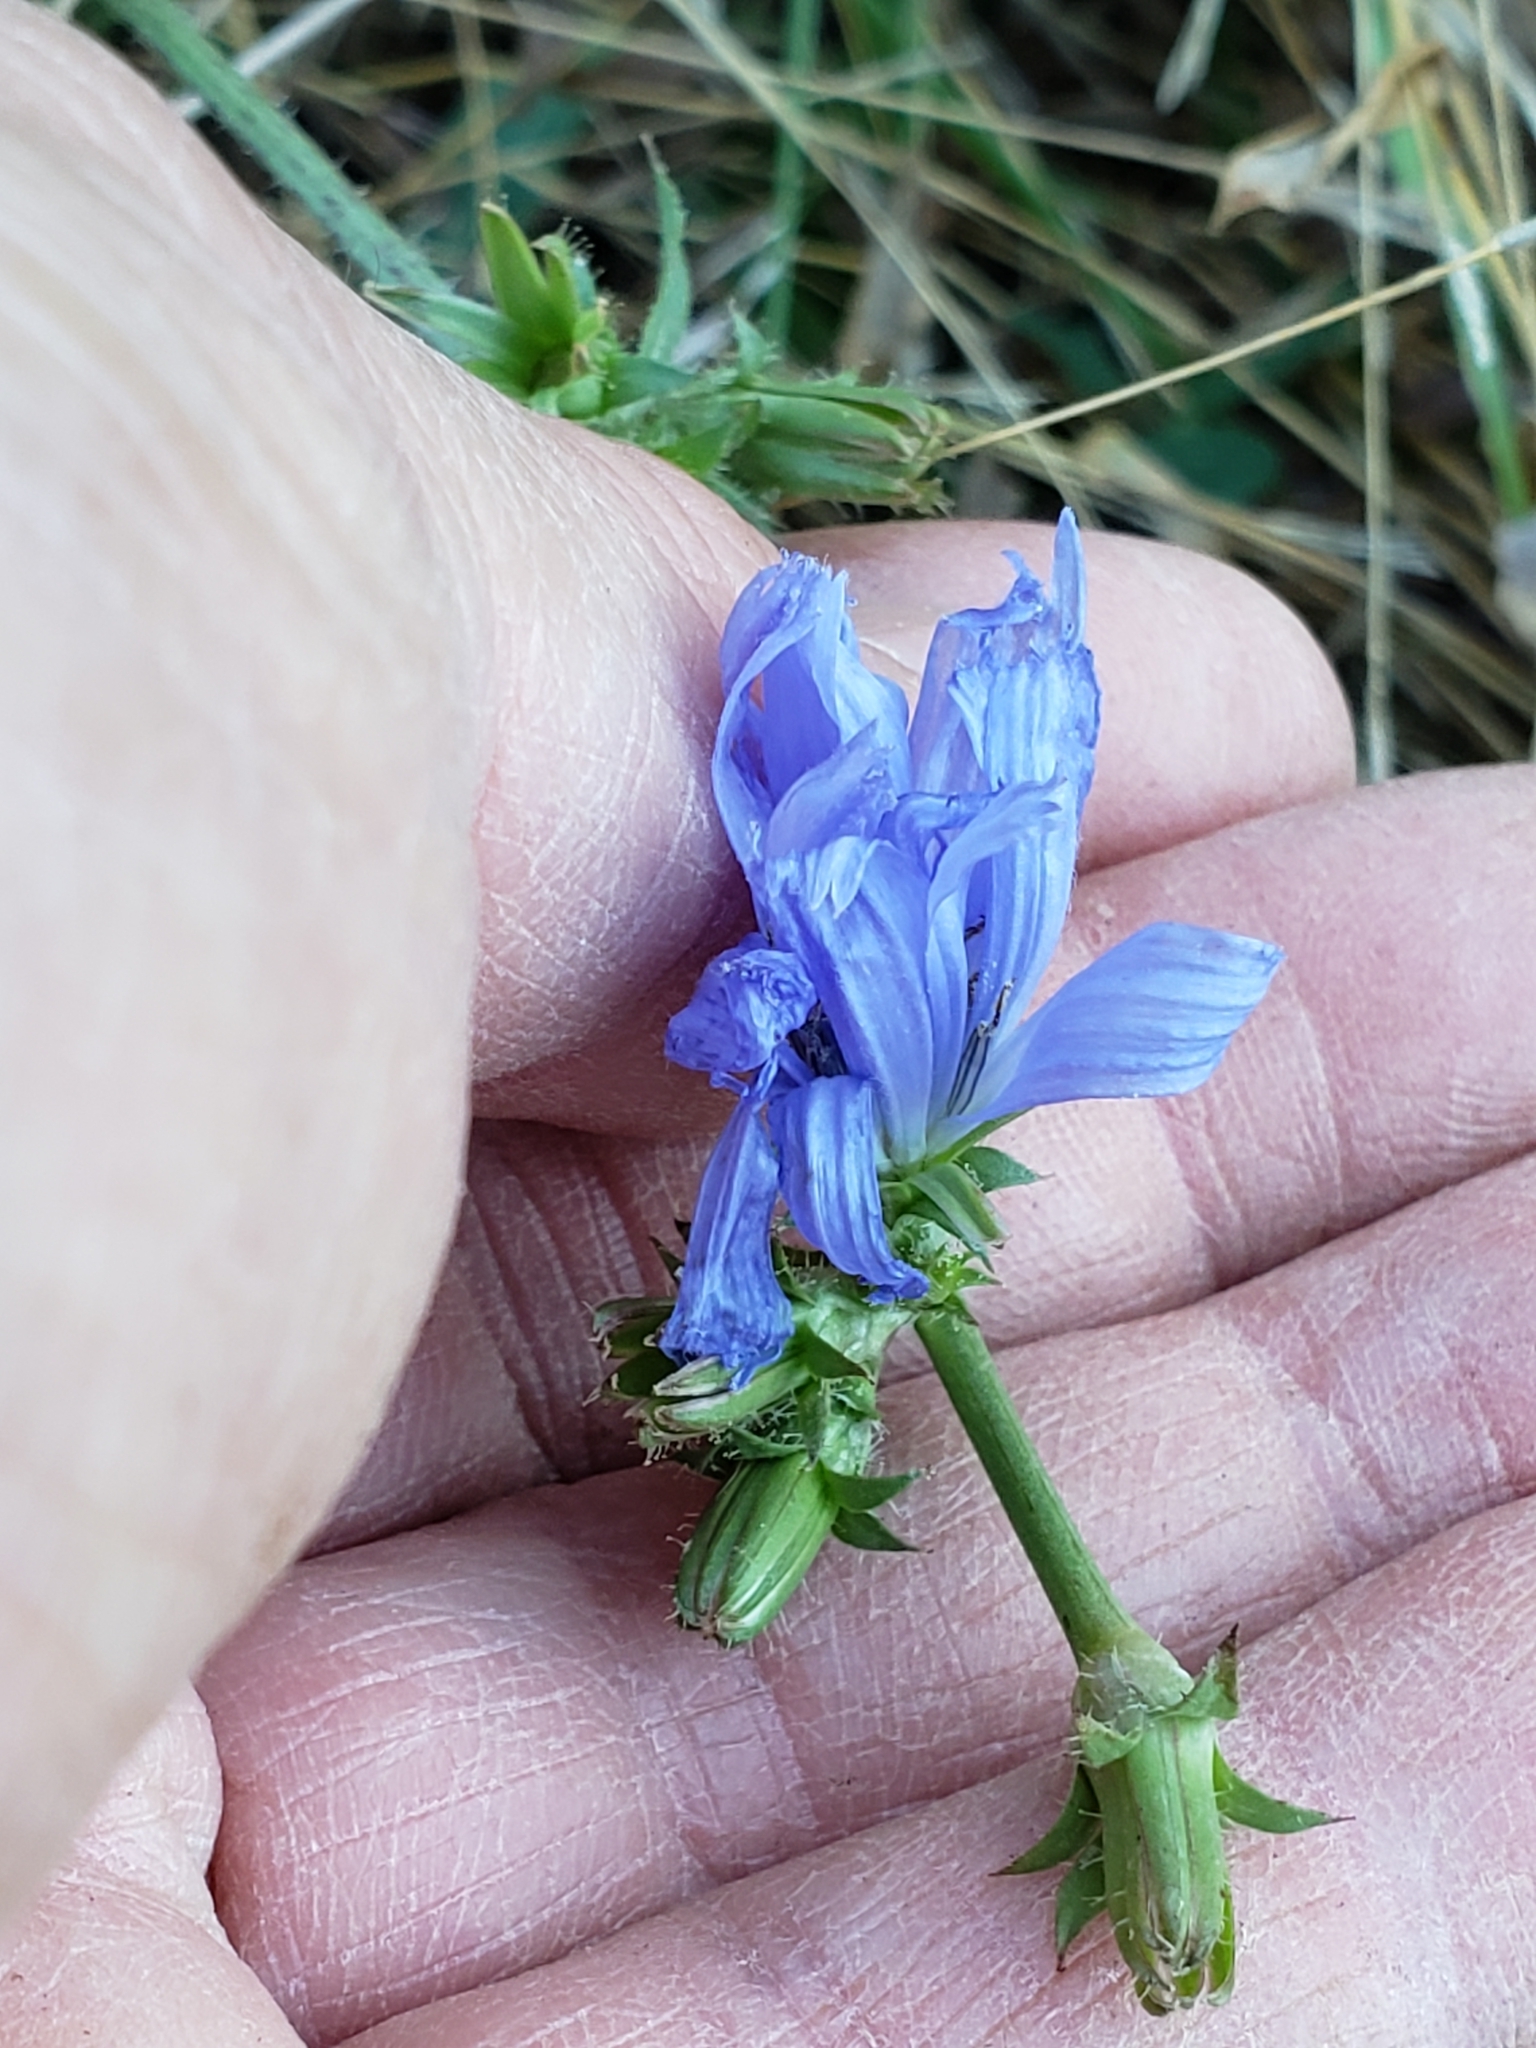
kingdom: Plantae
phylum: Tracheophyta
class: Magnoliopsida
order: Asterales
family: Asteraceae
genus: Cichorium
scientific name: Cichorium intybus
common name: Chicory
